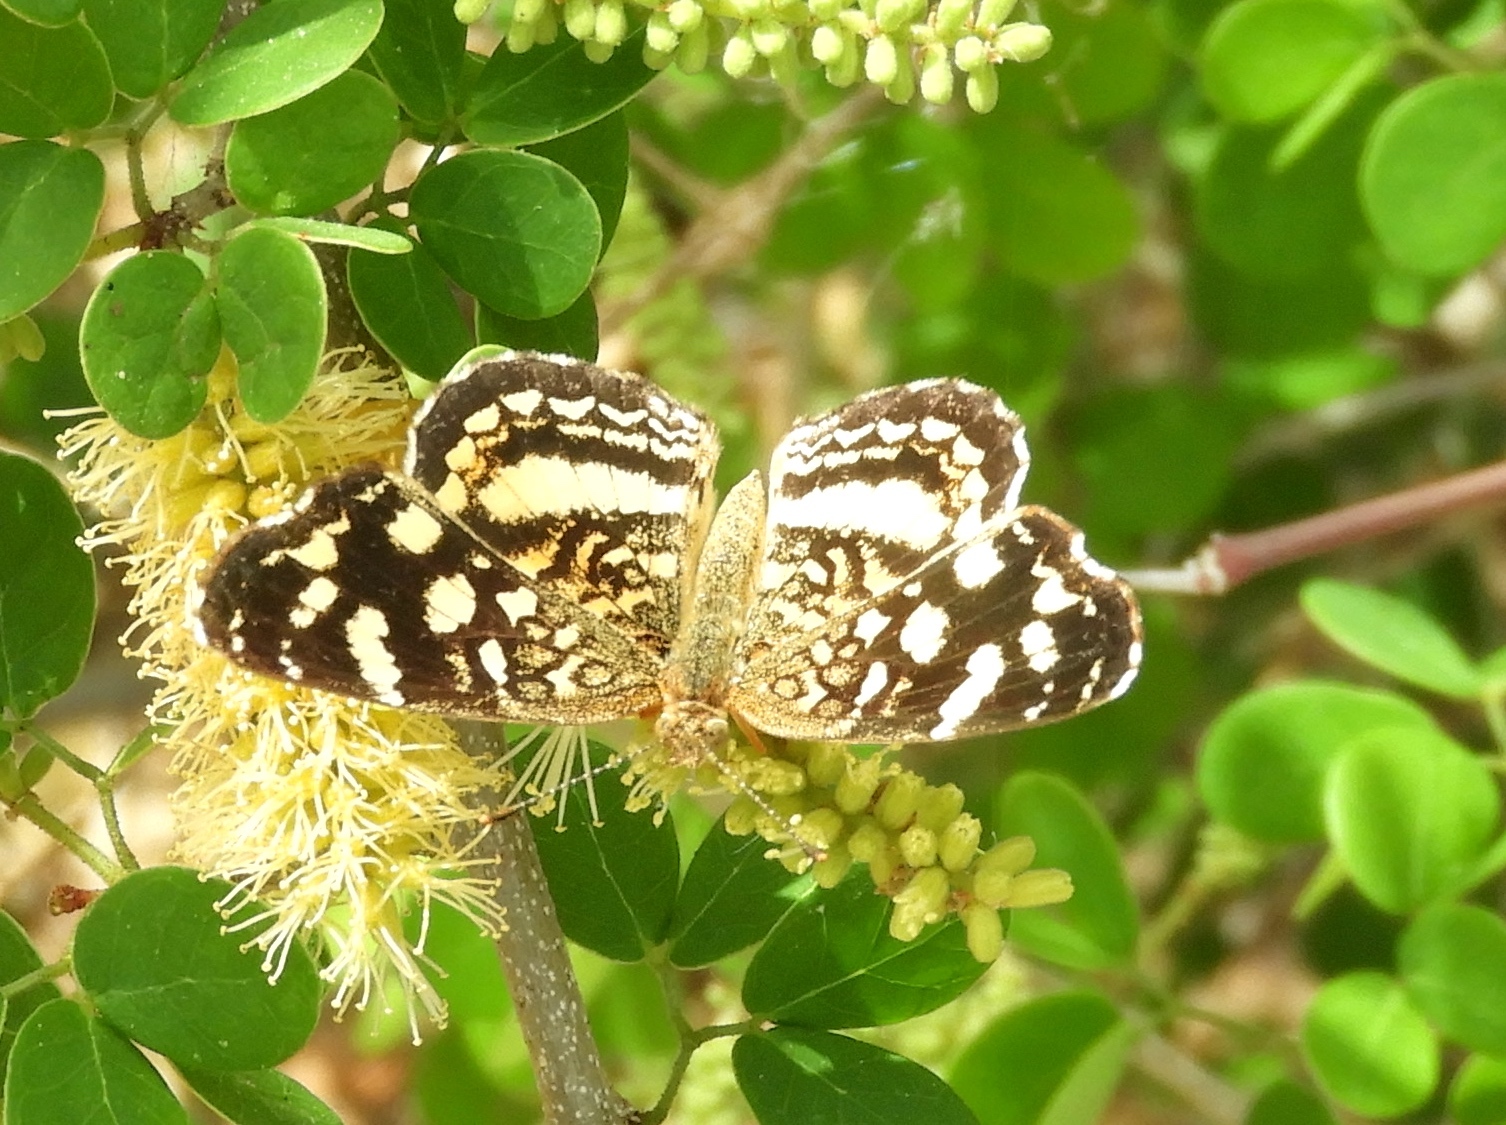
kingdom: Animalia
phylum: Arthropoda
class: Insecta
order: Lepidoptera
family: Nymphalidae
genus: Anthanassa
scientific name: Anthanassa tulcis
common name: Pale-banded crescent
